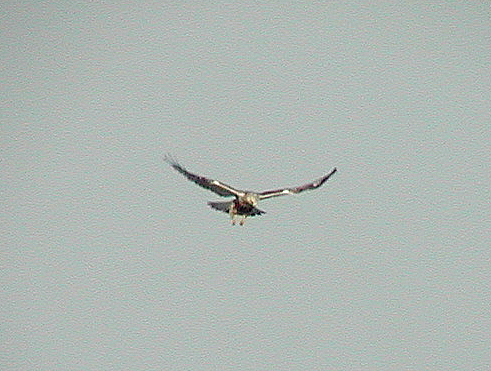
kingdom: Animalia
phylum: Chordata
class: Aves
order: Accipitriformes
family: Accipitridae
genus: Buteo
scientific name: Buteo lagopus
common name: Rough-legged buzzard
